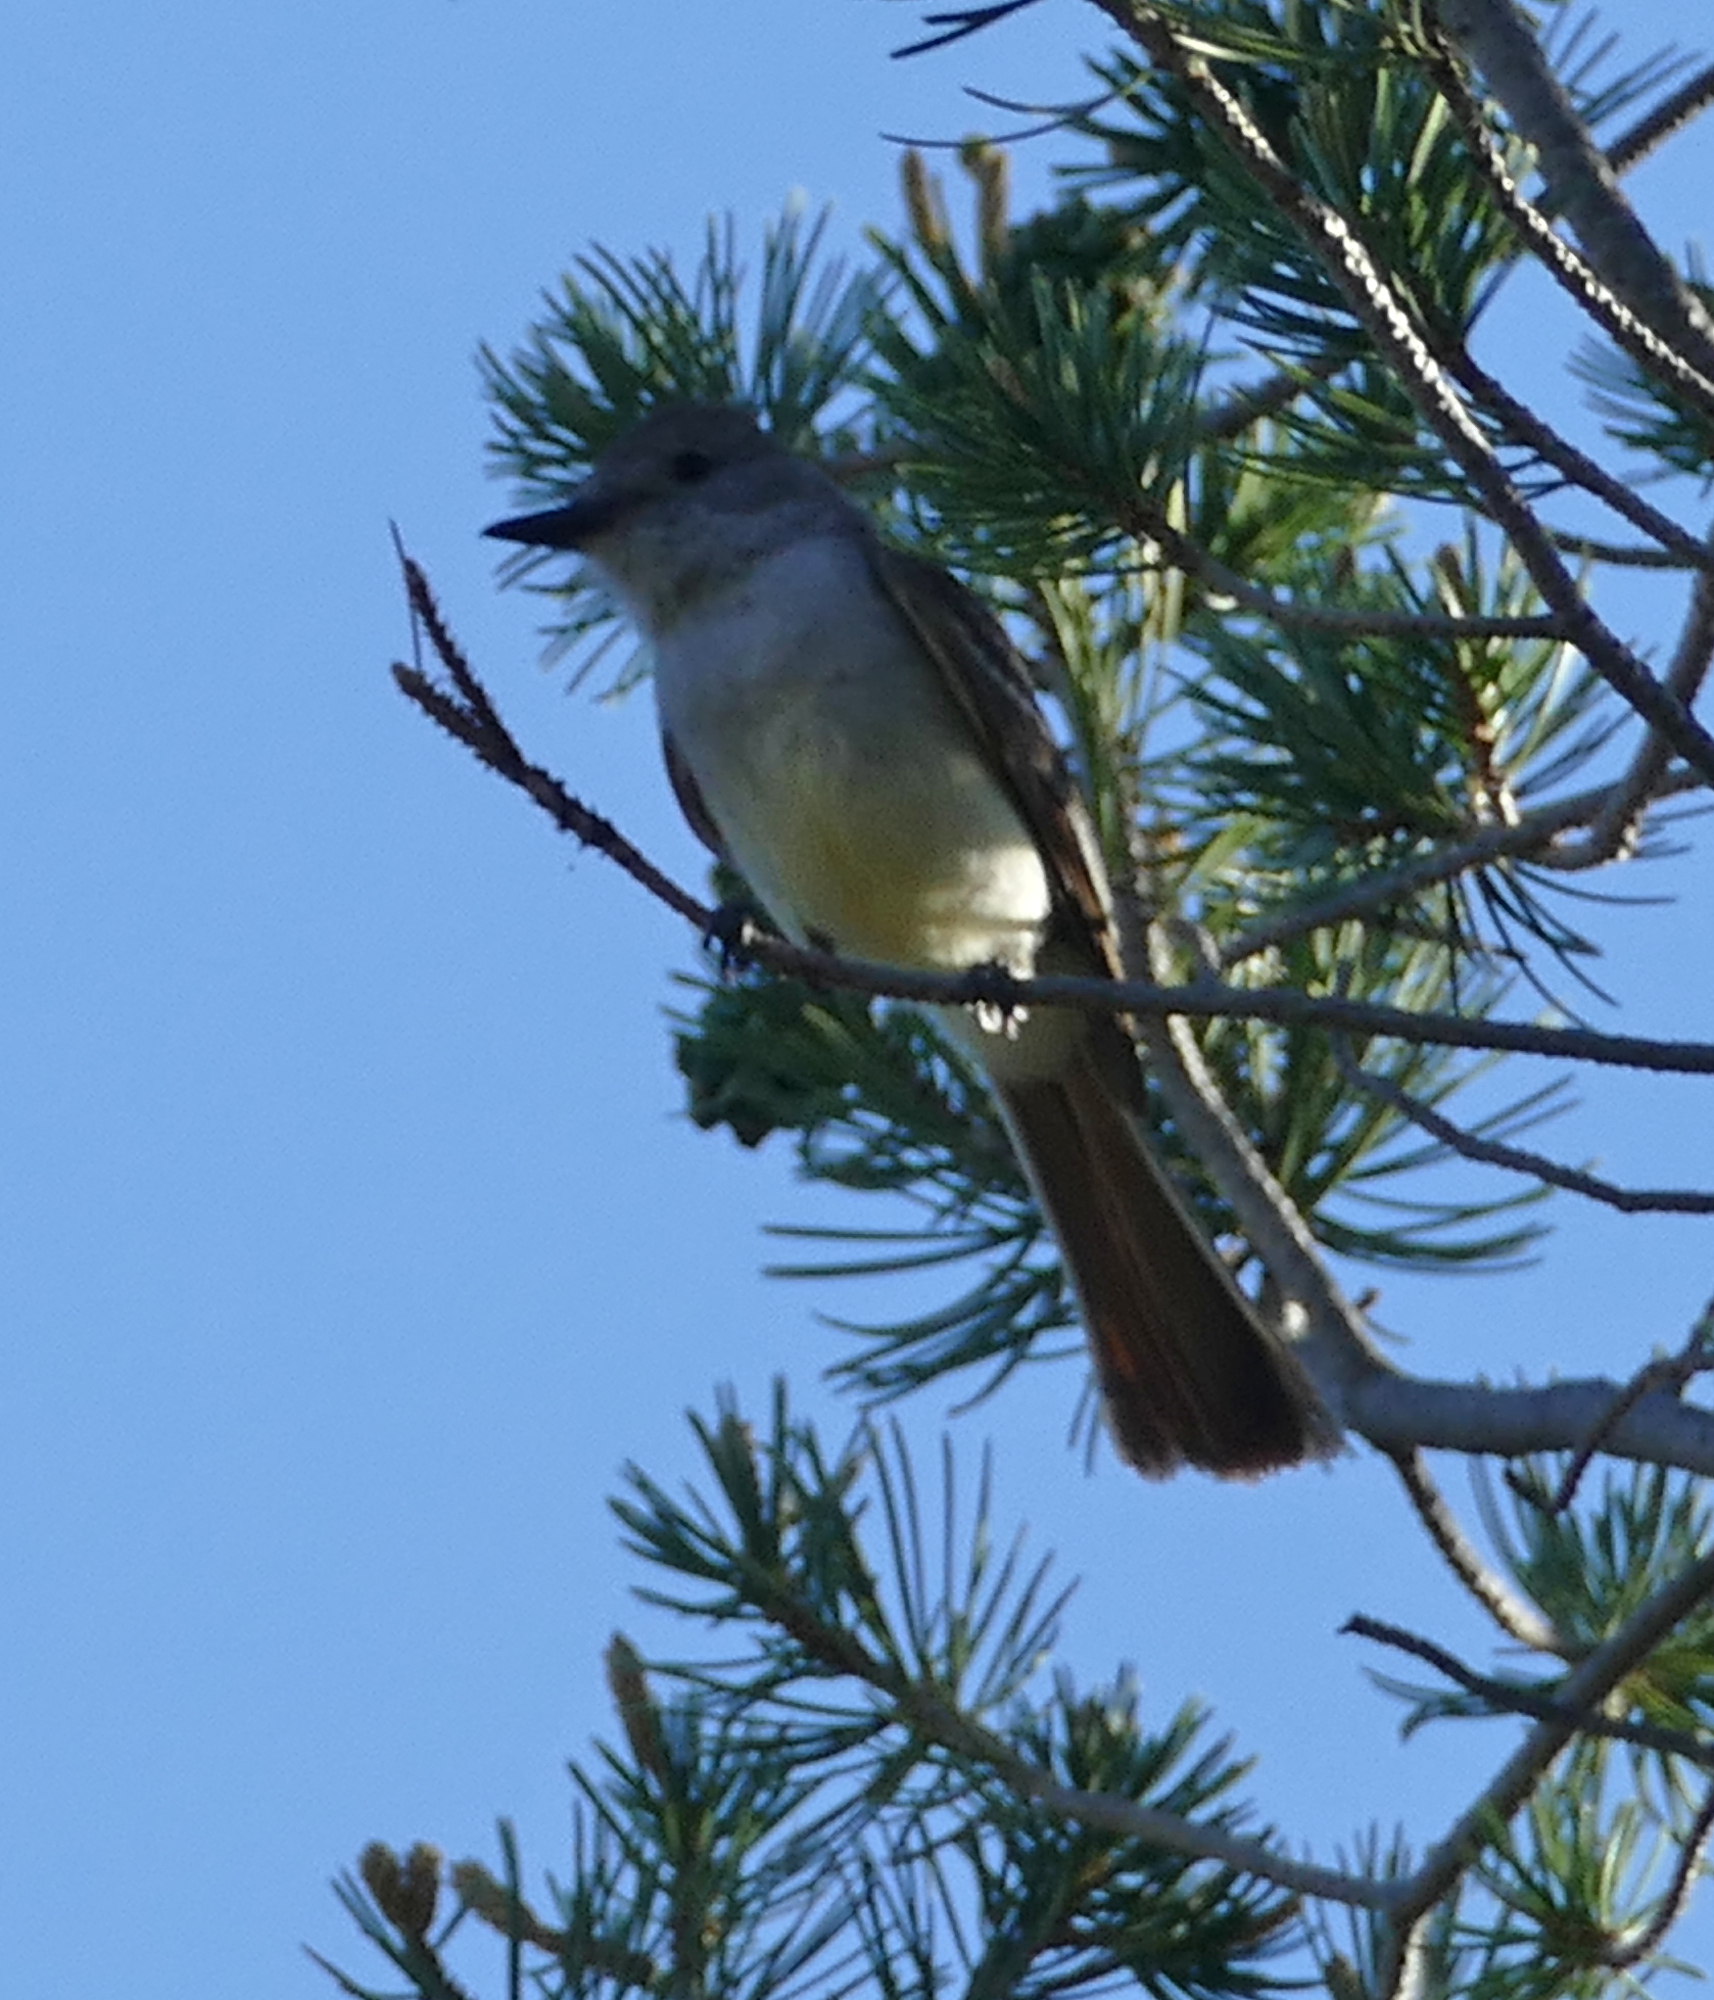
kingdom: Animalia
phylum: Chordata
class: Aves
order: Passeriformes
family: Tyrannidae
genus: Myiarchus
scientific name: Myiarchus cinerascens
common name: Ash-throated flycatcher
